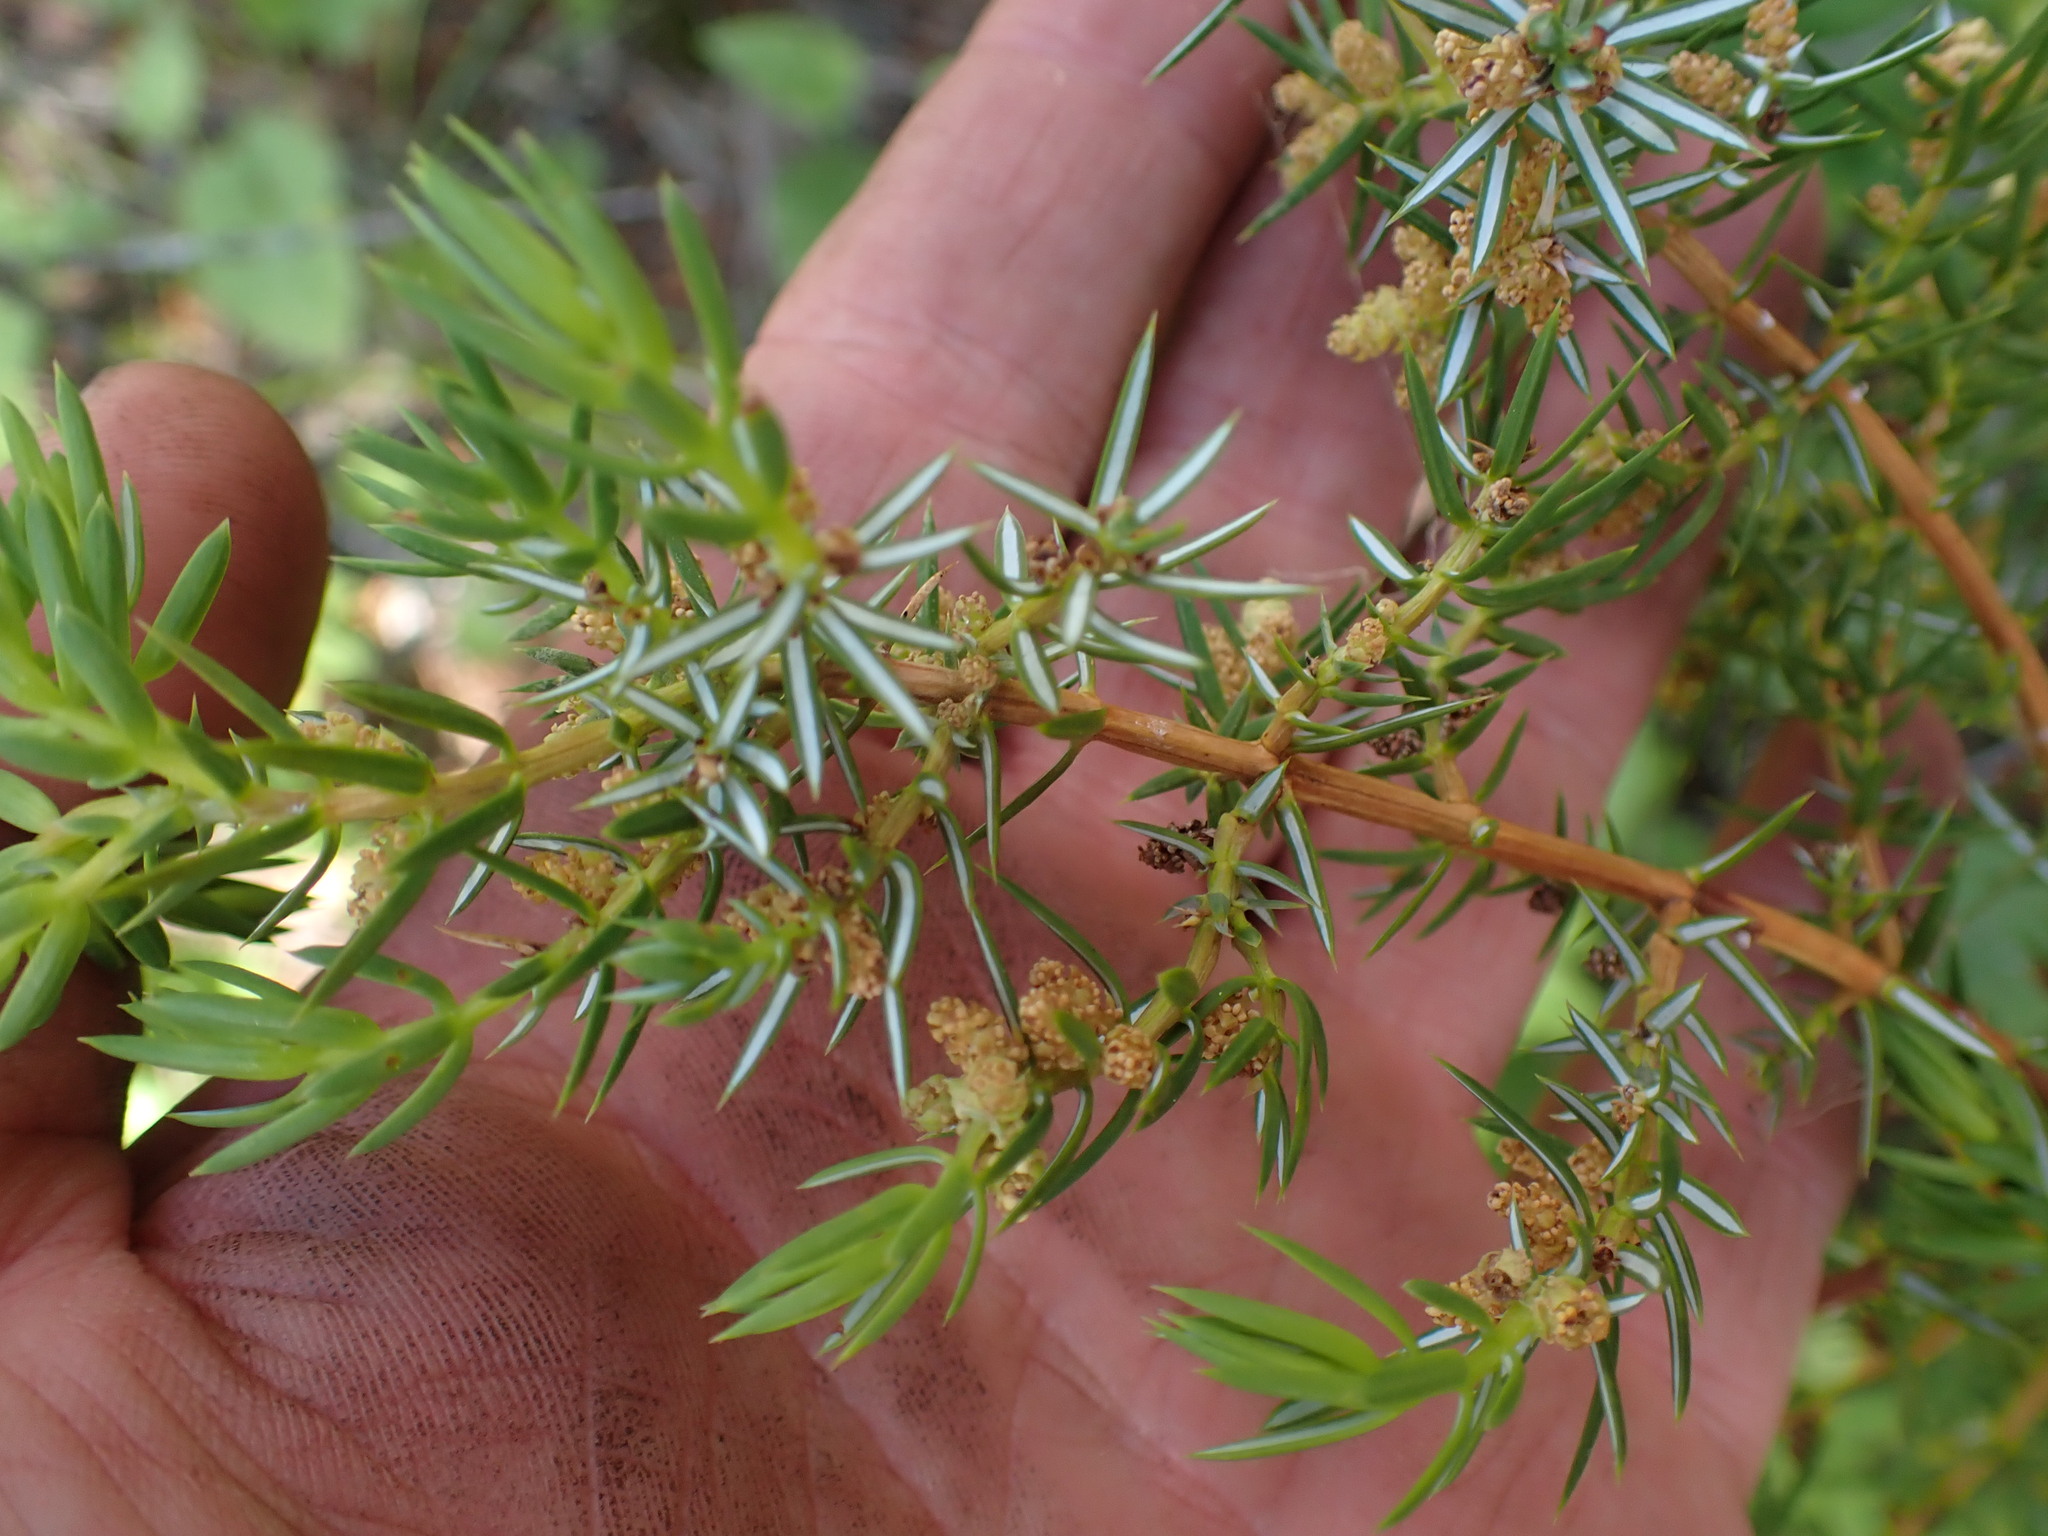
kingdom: Plantae
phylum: Tracheophyta
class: Pinopsida
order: Pinales
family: Cupressaceae
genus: Juniperus
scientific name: Juniperus communis
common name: Common juniper
